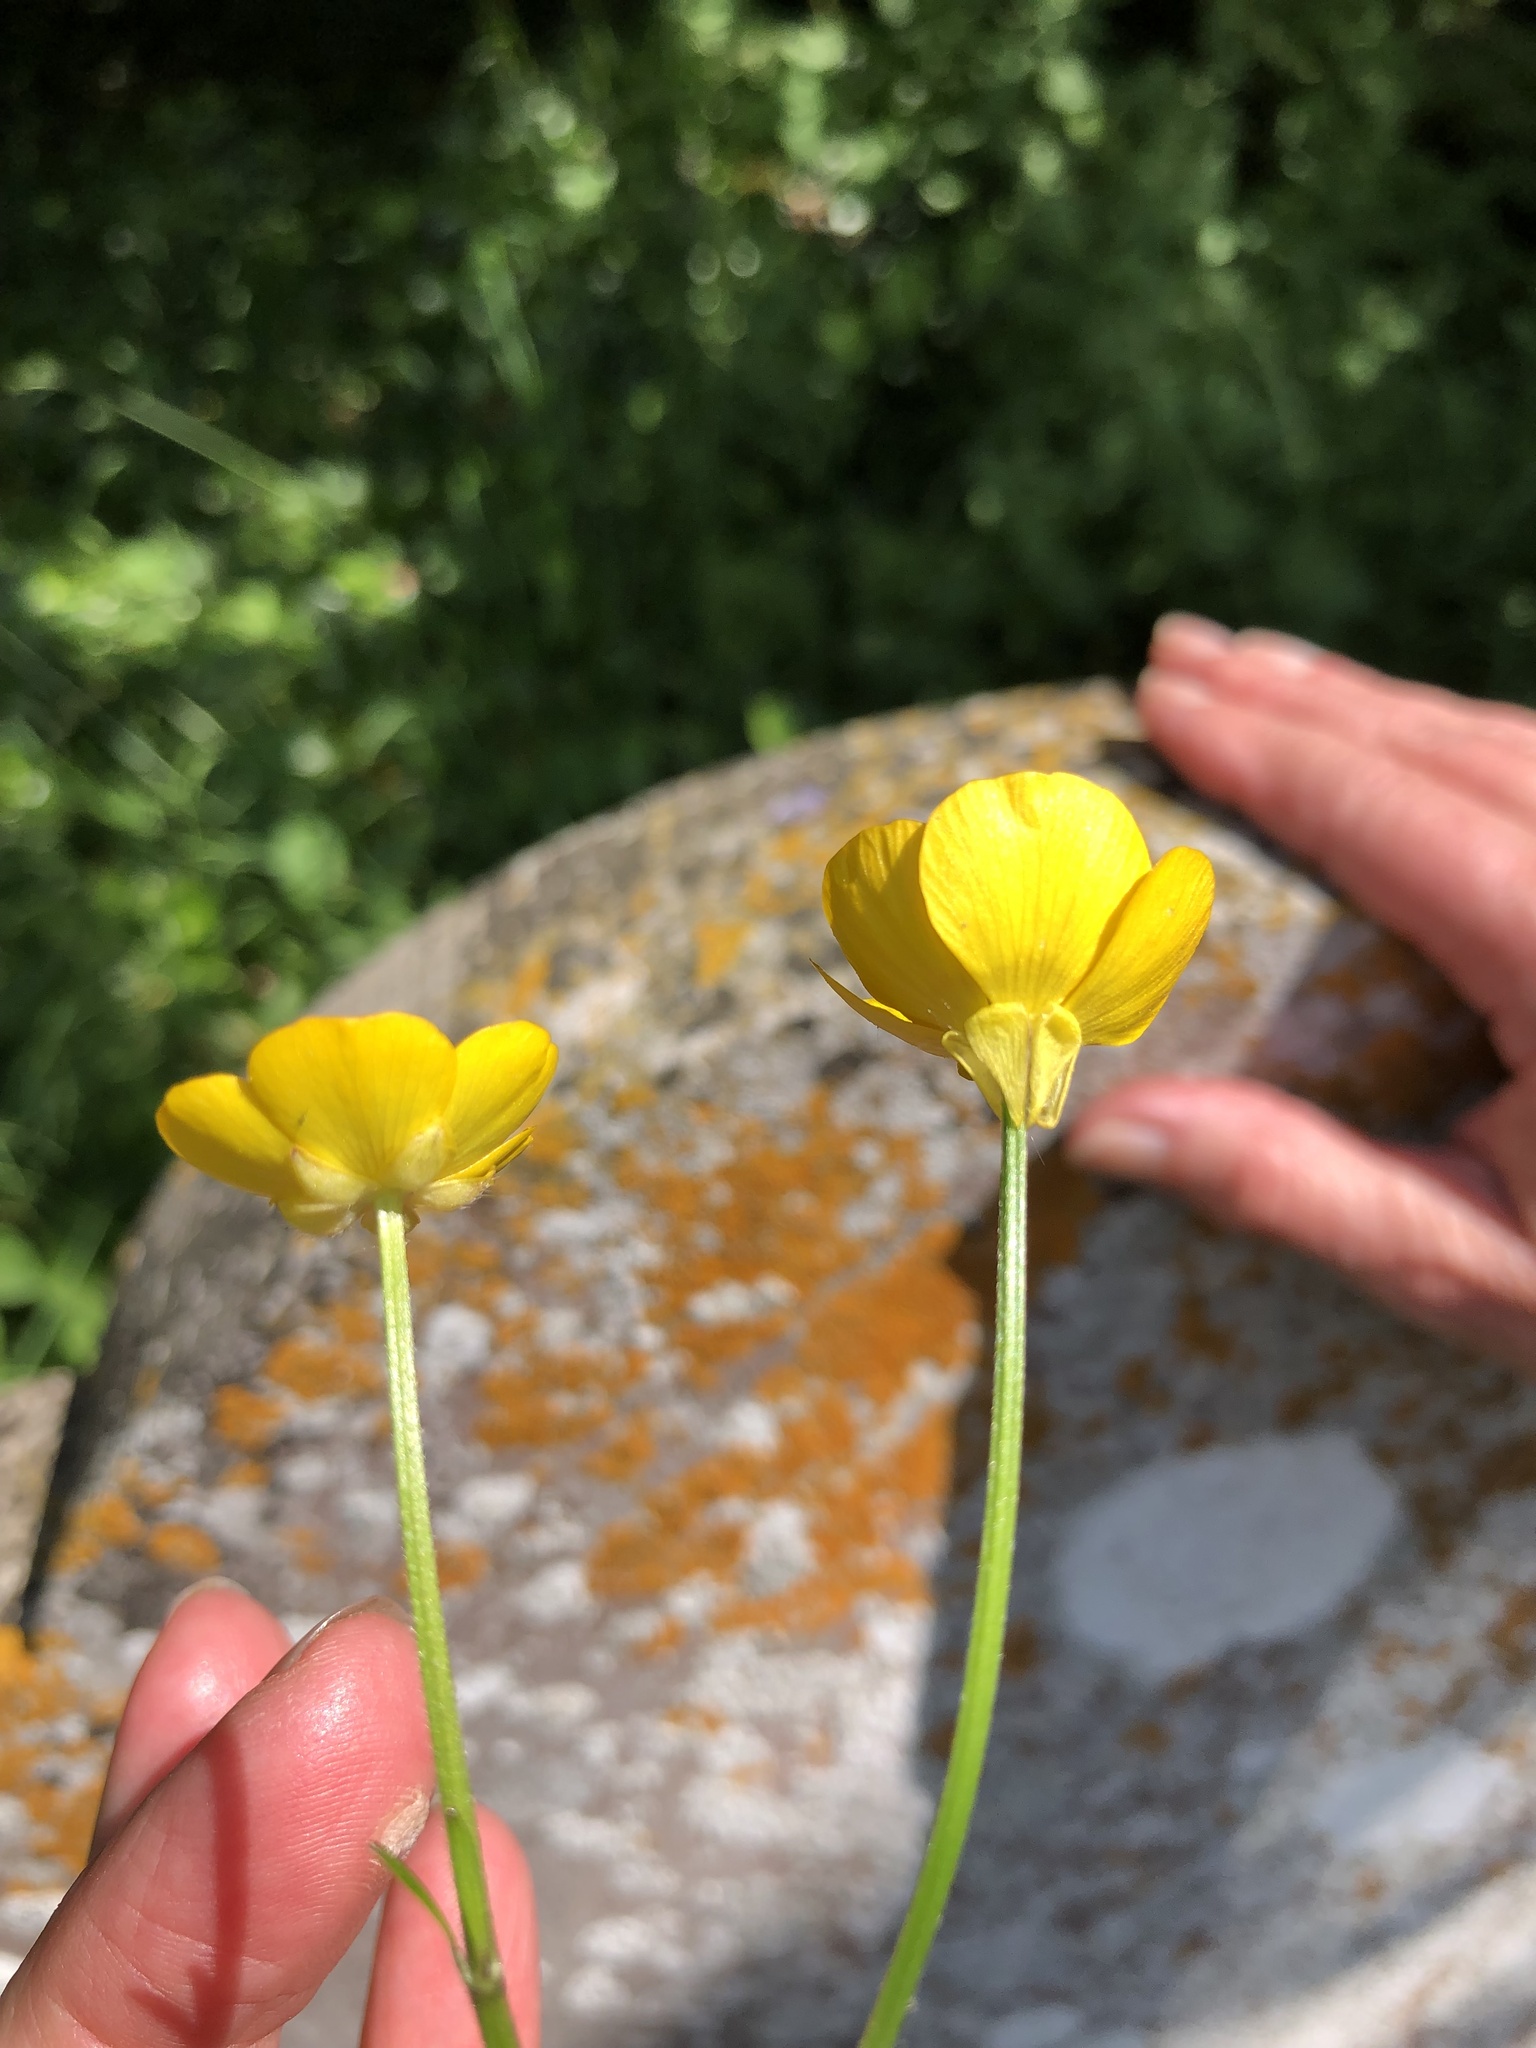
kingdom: Plantae
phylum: Tracheophyta
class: Magnoliopsida
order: Ranunculales
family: Ranunculaceae
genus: Ranunculus
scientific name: Ranunculus bulbosus
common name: Bulbous buttercup
